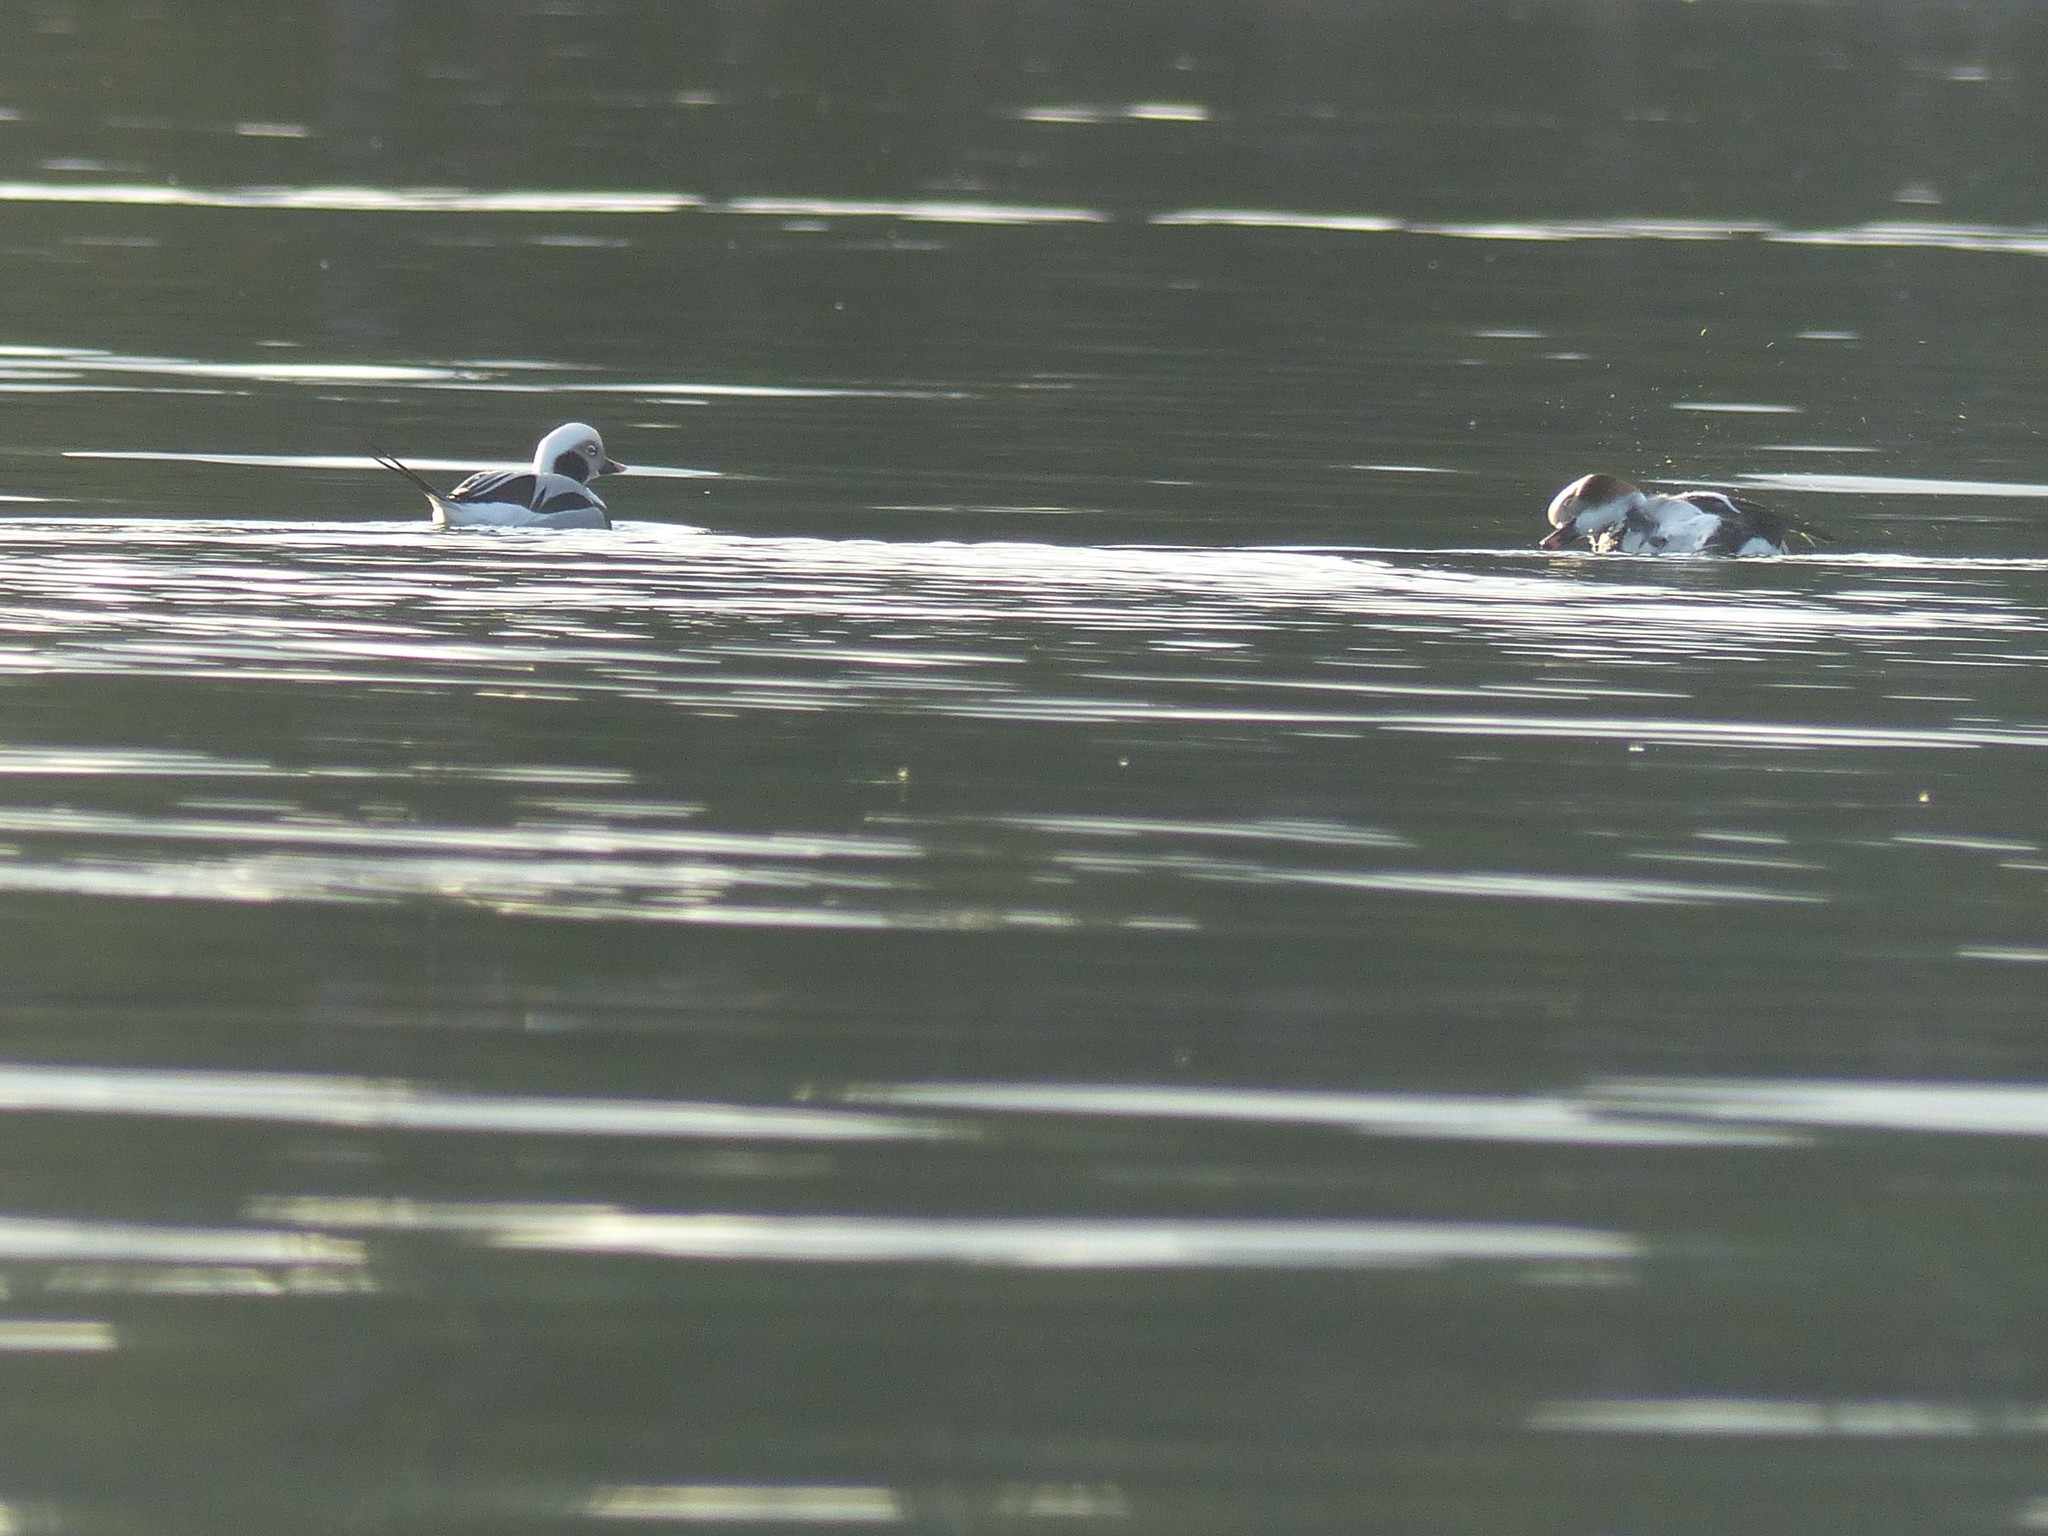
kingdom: Animalia
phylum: Chordata
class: Aves
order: Anseriformes
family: Anatidae
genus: Clangula
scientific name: Clangula hyemalis
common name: Long-tailed duck
